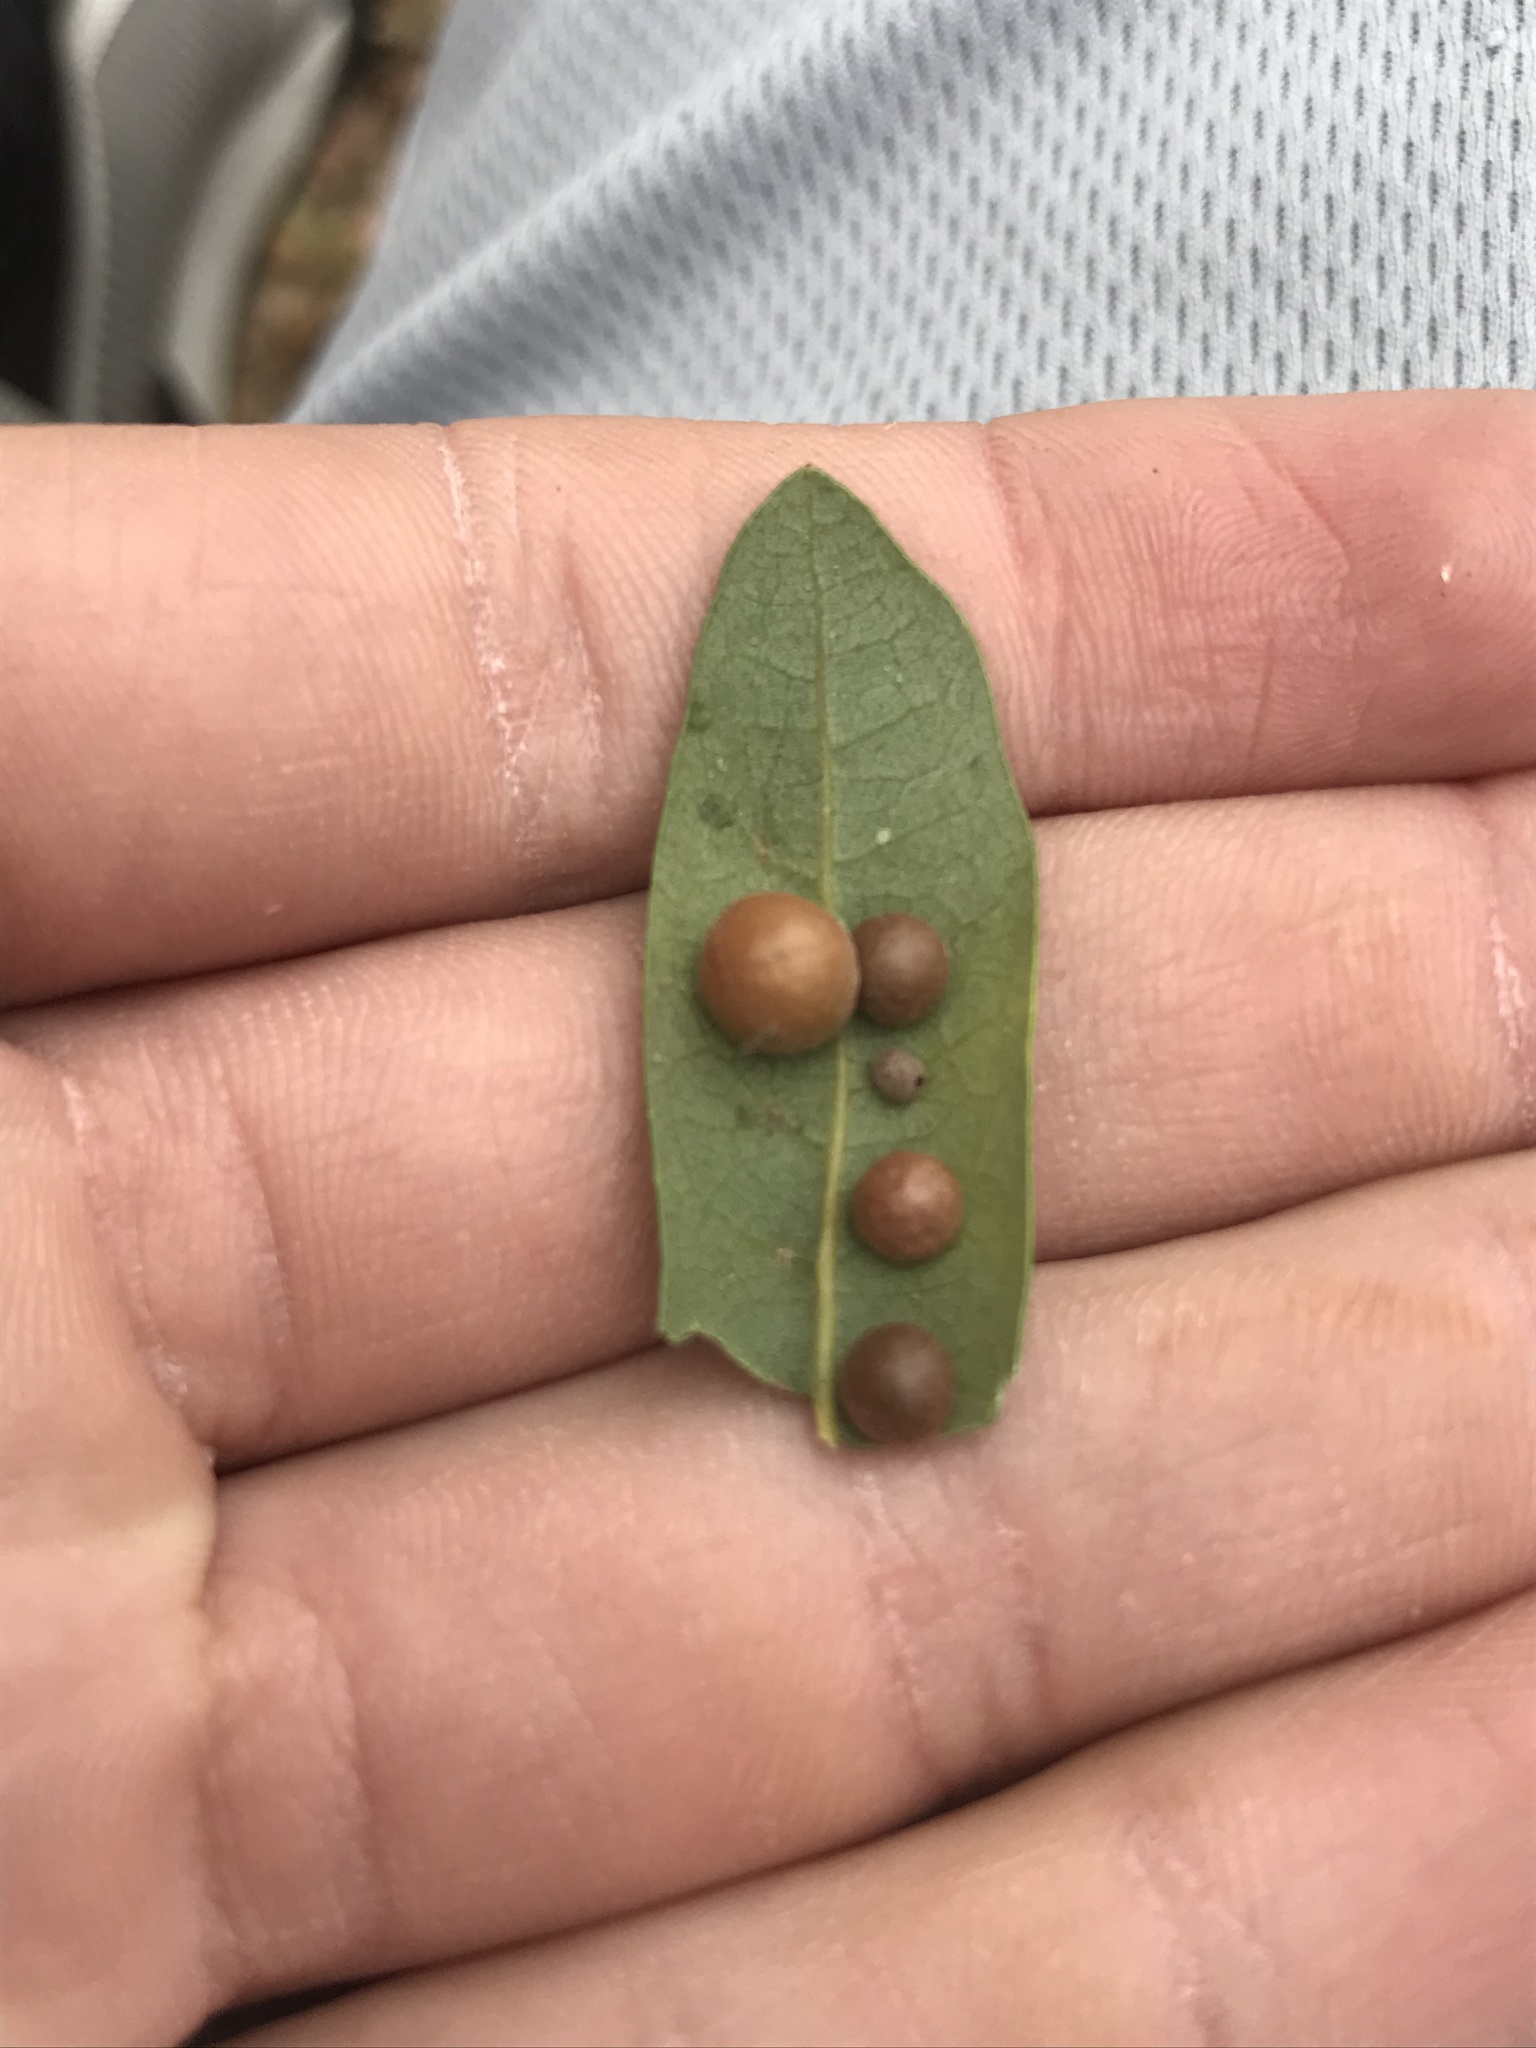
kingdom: Animalia
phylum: Arthropoda
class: Insecta
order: Hymenoptera
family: Cynipidae
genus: Belonocnema
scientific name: Belonocnema kinseyi
